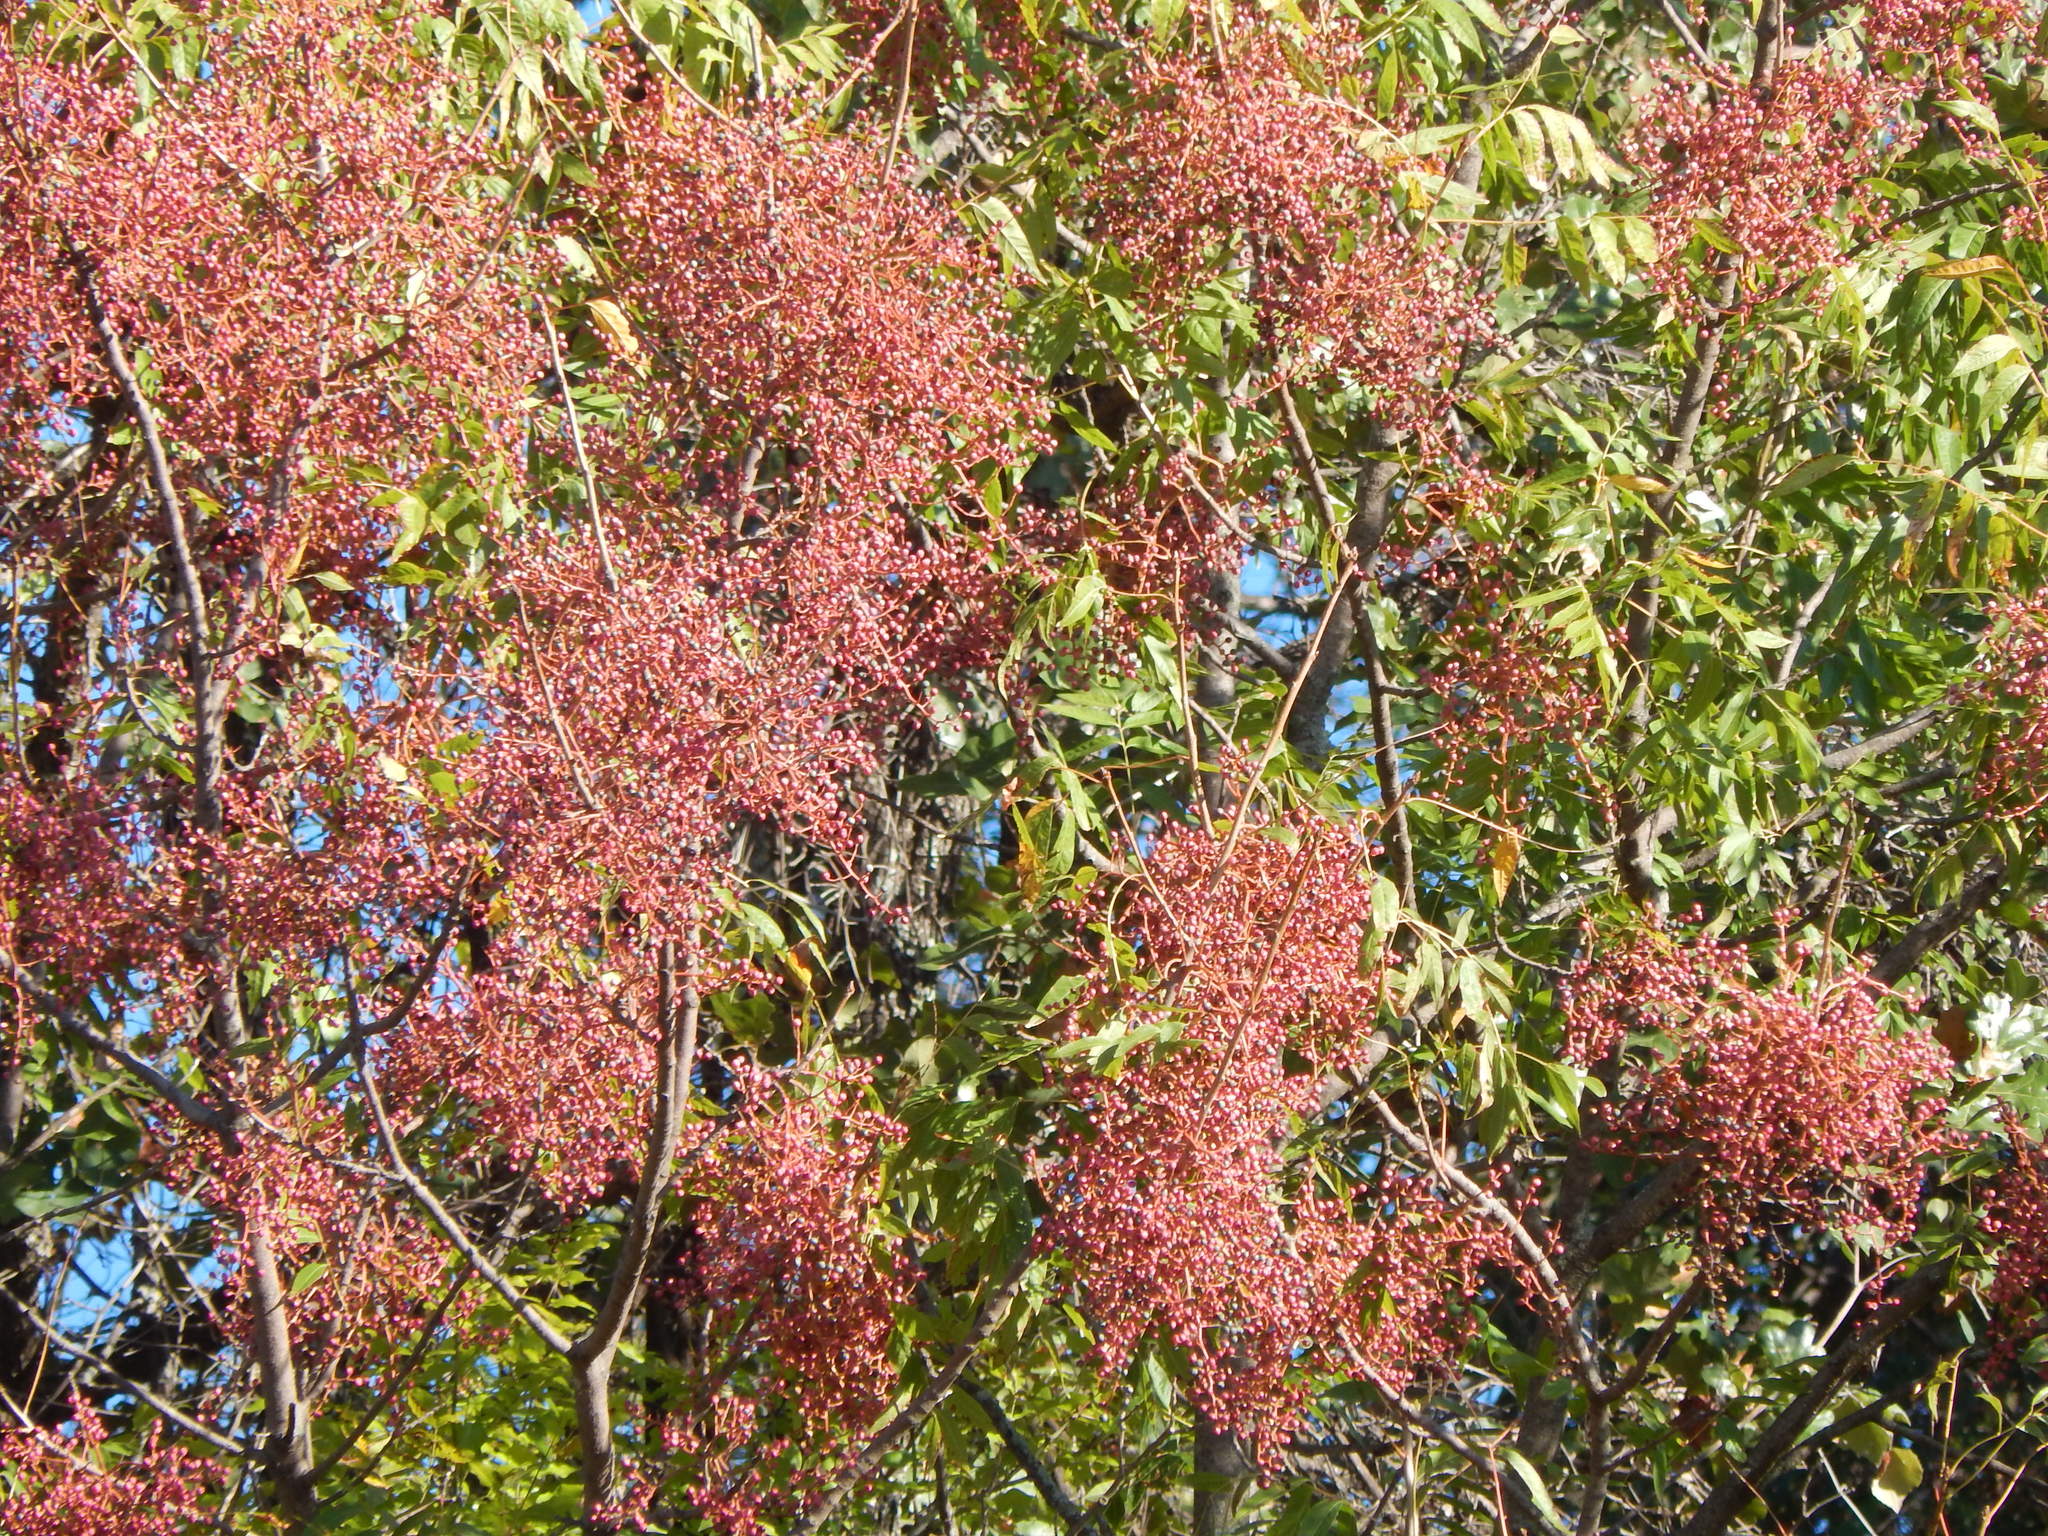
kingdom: Plantae
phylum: Tracheophyta
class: Magnoliopsida
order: Sapindales
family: Anacardiaceae
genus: Pistacia
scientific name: Pistacia chinensis
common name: Chinese pistache
